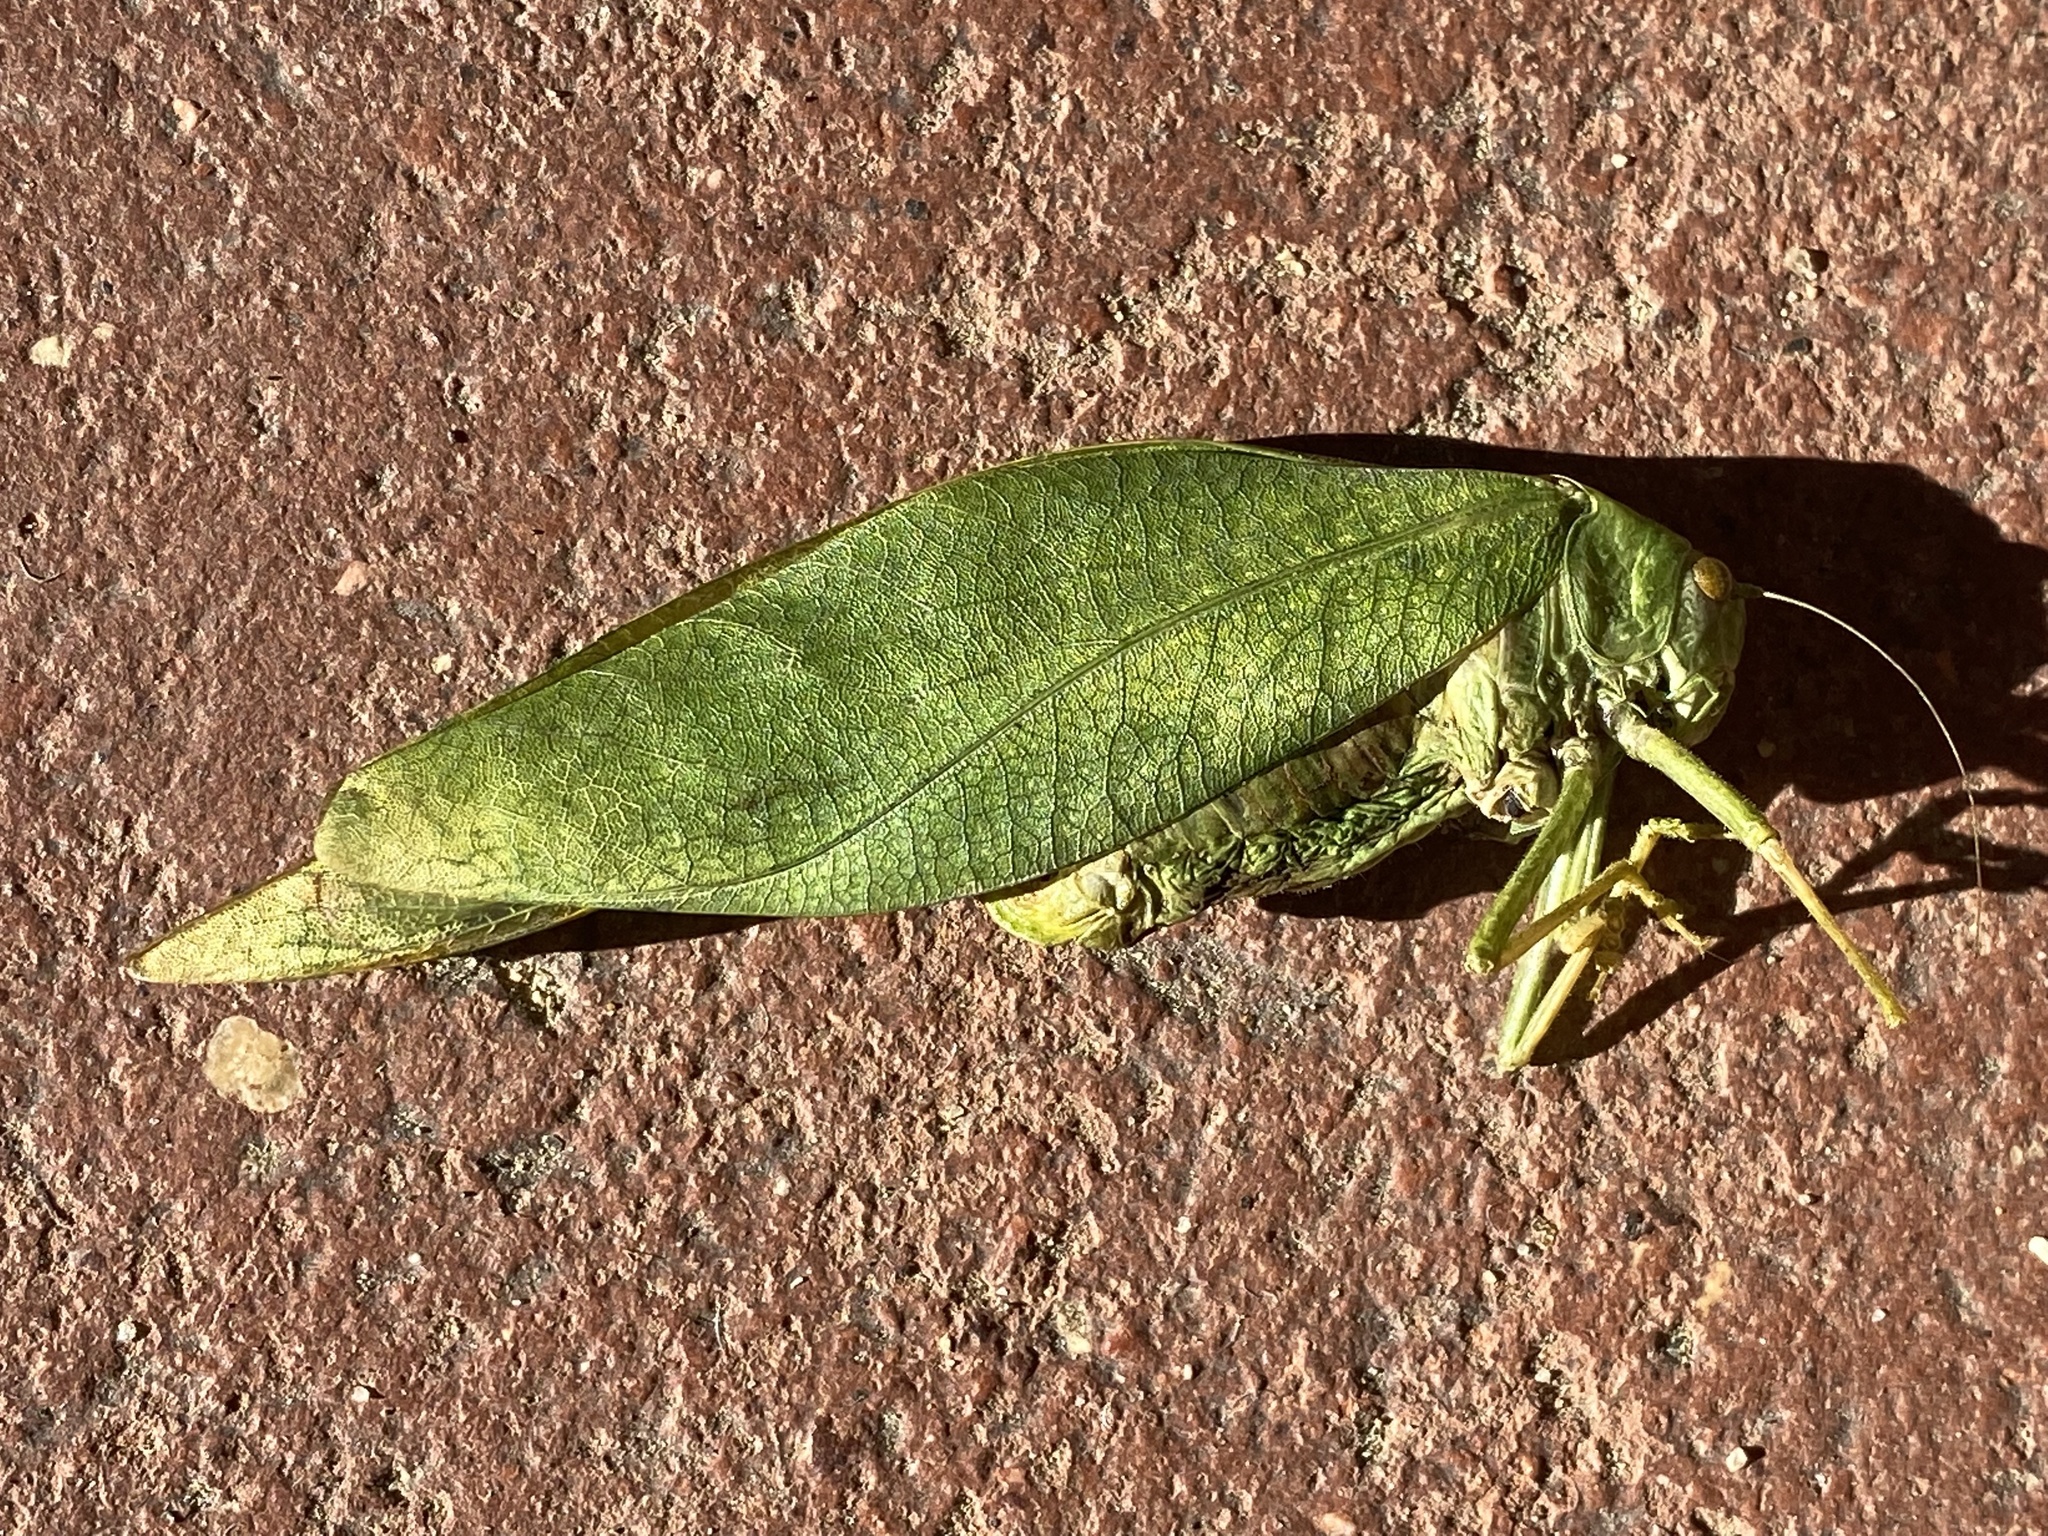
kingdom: Animalia
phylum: Arthropoda
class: Insecta
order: Orthoptera
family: Tettigoniidae
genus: Microcentrum
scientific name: Microcentrum
